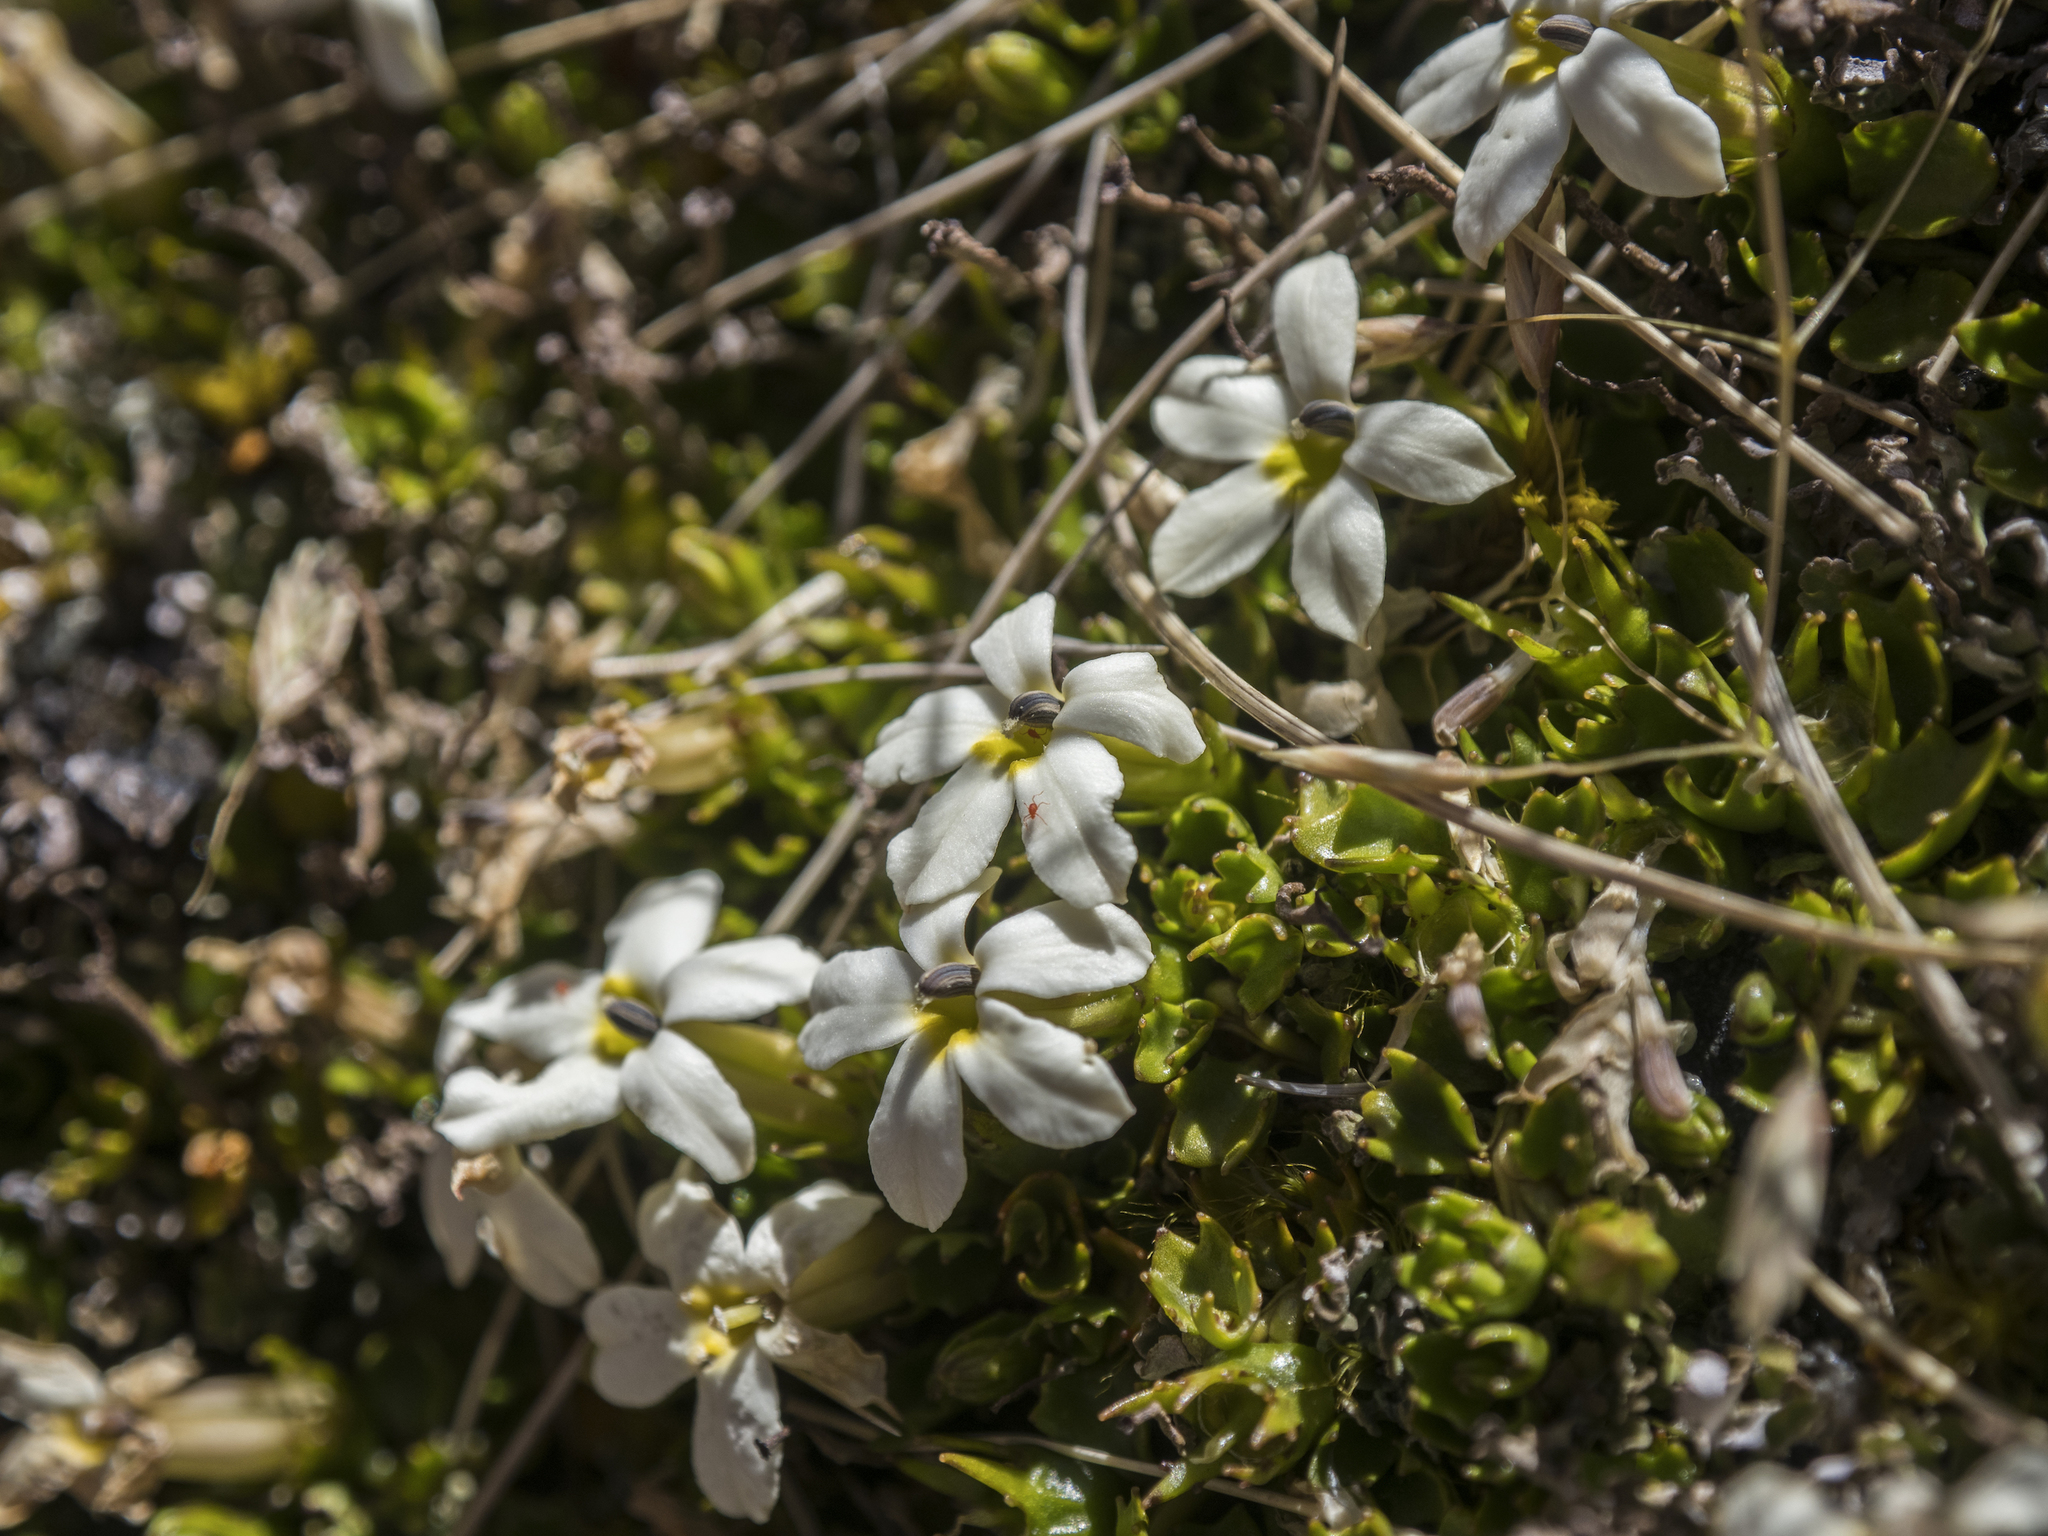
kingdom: Plantae
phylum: Tracheophyta
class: Magnoliopsida
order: Asterales
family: Campanulaceae
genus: Lobelia
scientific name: Lobelia macrodon
